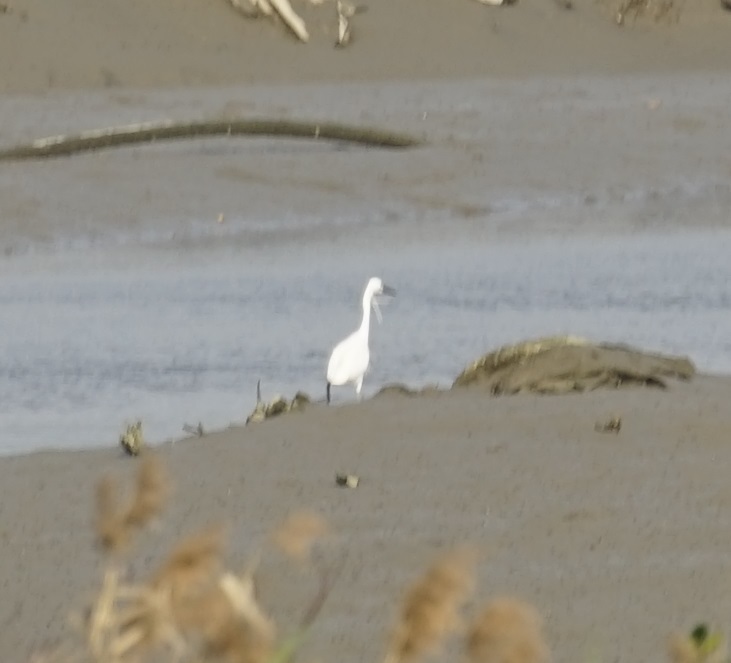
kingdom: Animalia
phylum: Chordata
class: Aves
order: Pelecaniformes
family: Ardeidae
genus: Egretta
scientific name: Egretta garzetta
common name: Little egret
